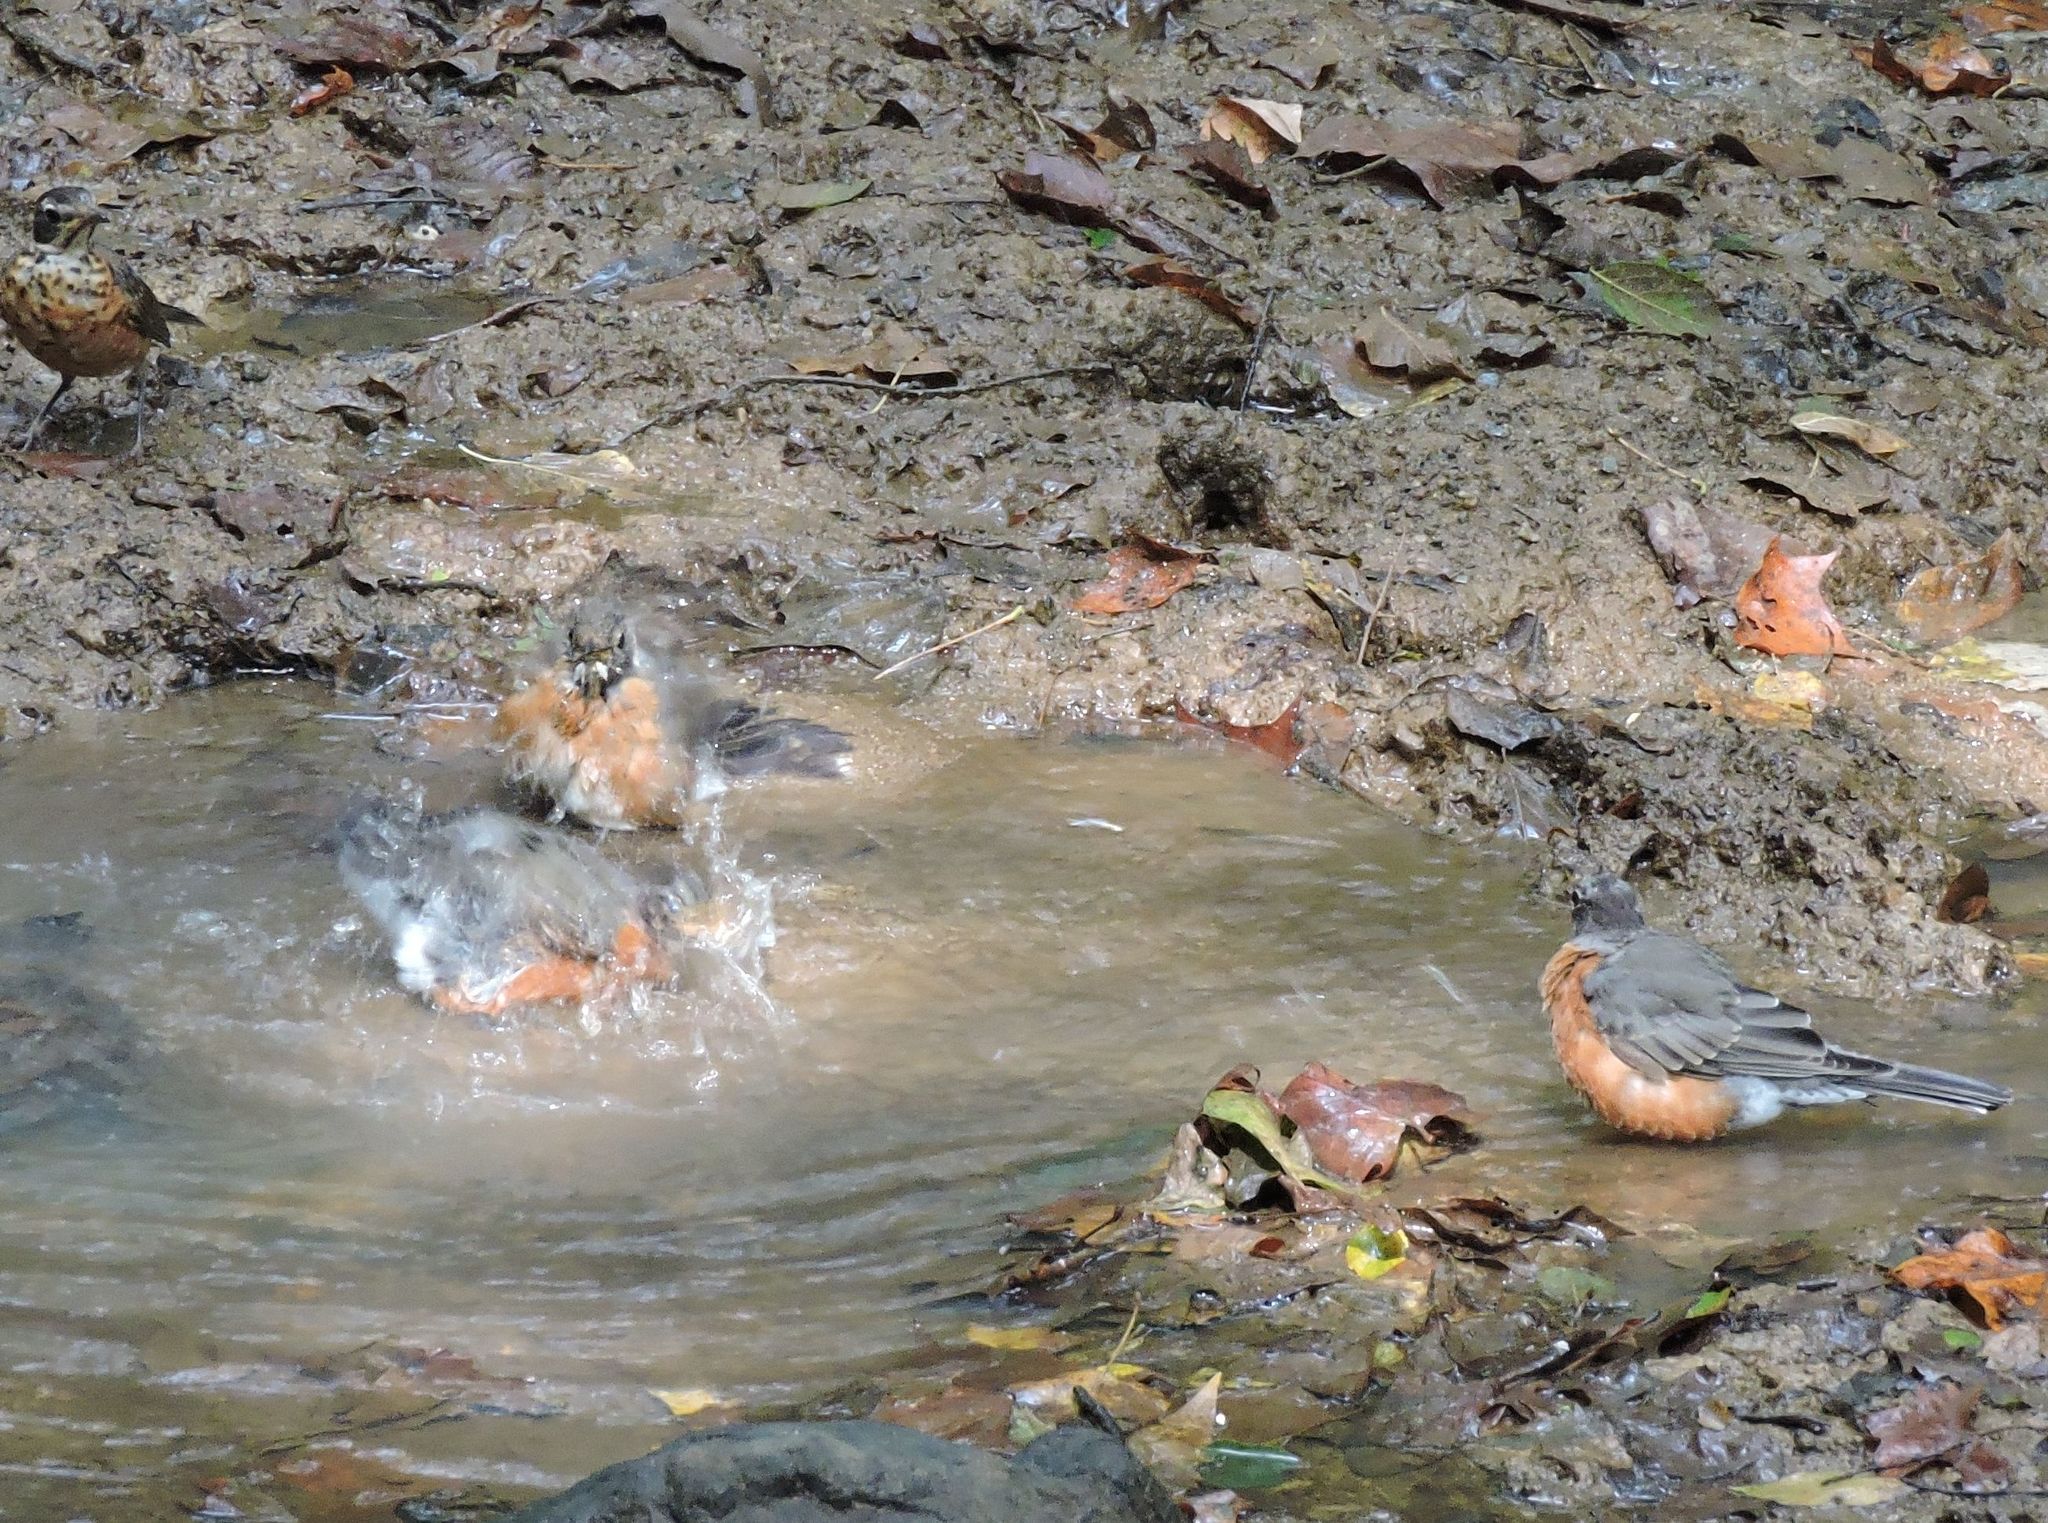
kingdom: Animalia
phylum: Chordata
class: Aves
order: Passeriformes
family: Turdidae
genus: Turdus
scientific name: Turdus migratorius
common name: American robin
